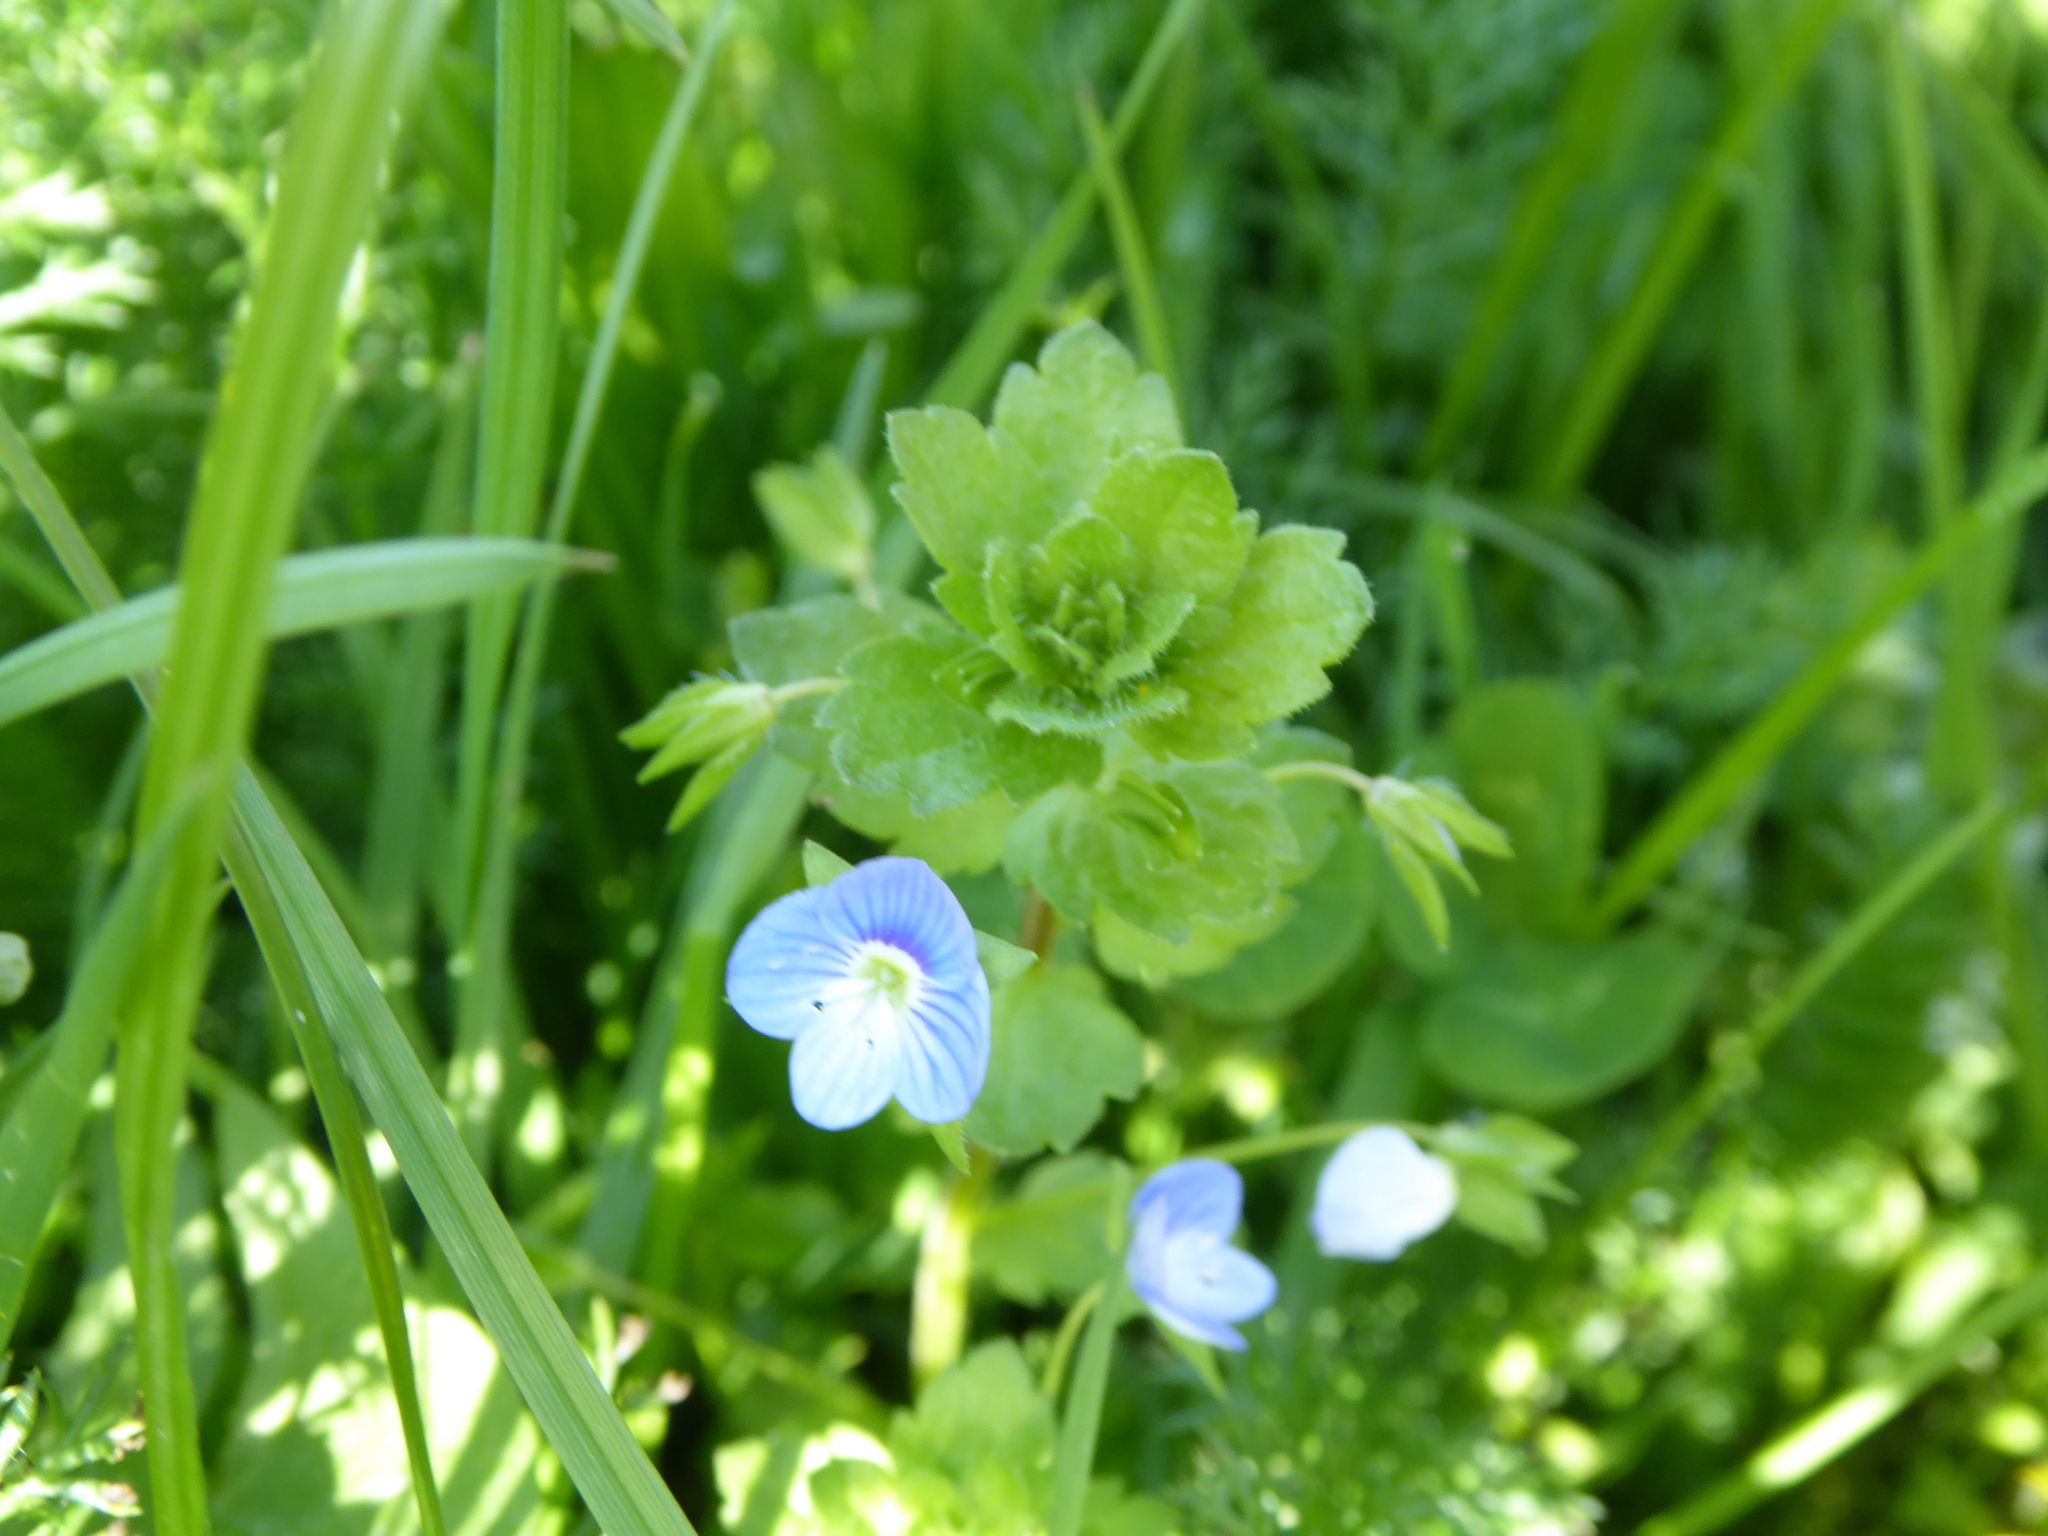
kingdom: Plantae
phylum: Tracheophyta
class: Magnoliopsida
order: Lamiales
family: Plantaginaceae
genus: Veronica
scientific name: Veronica persica
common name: Common field-speedwell
